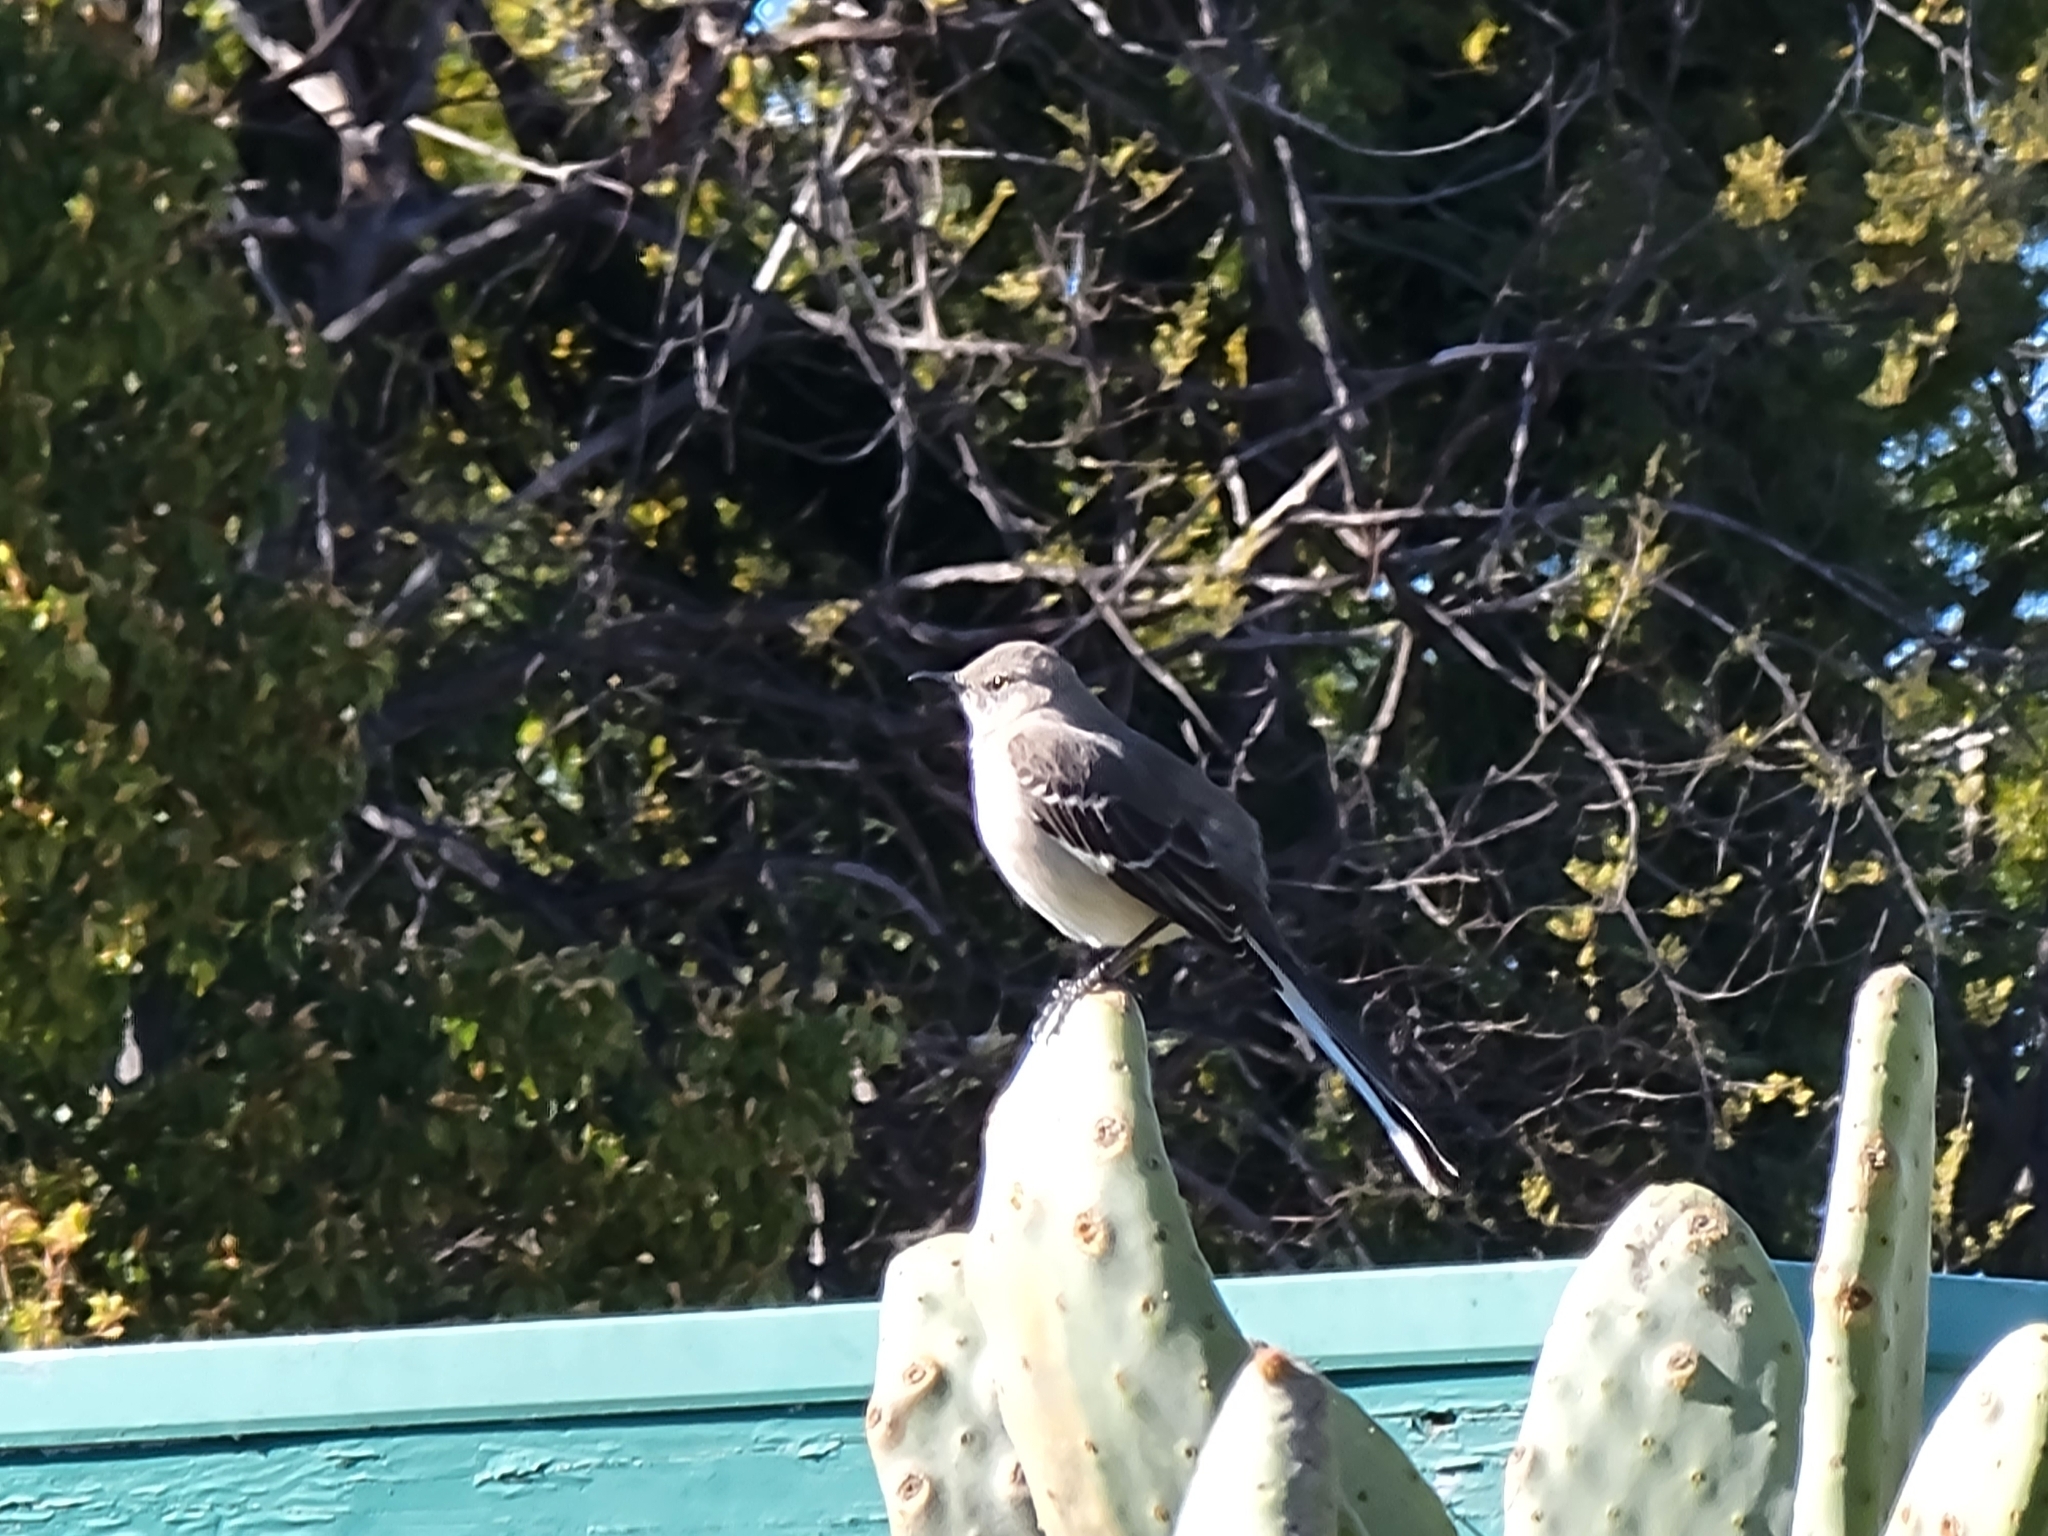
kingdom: Animalia
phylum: Chordata
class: Aves
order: Passeriformes
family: Mimidae
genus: Mimus
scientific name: Mimus polyglottos
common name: Northern mockingbird
